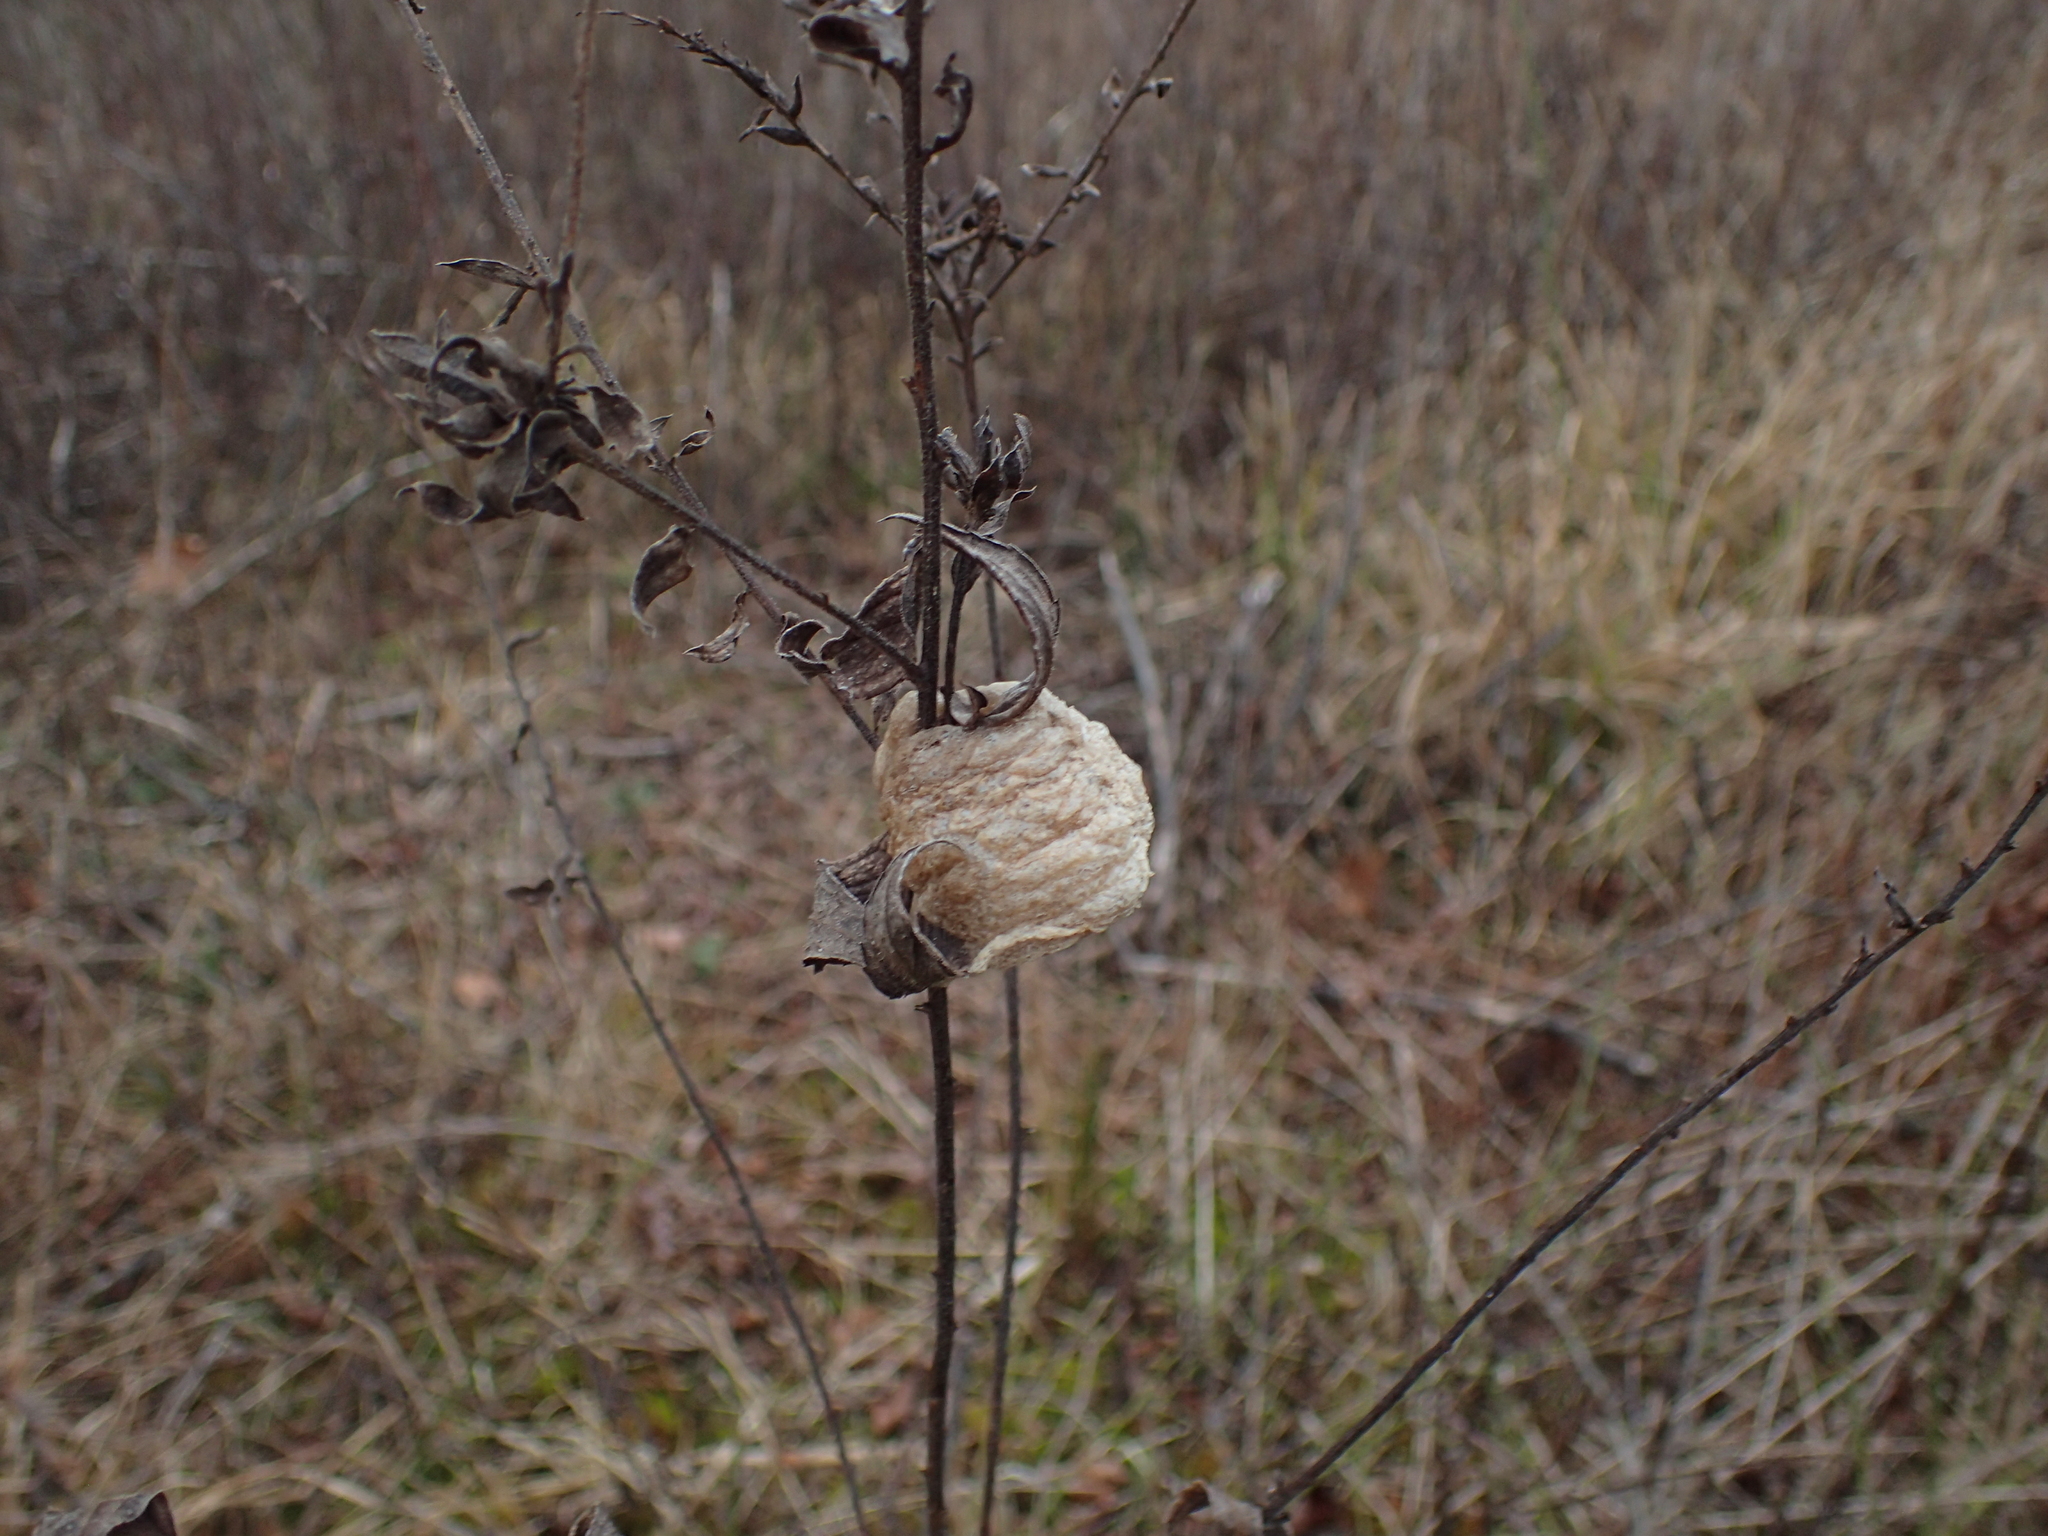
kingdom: Animalia
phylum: Arthropoda
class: Insecta
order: Mantodea
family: Mantidae
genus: Tenodera
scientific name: Tenodera sinensis
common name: Chinese mantis
